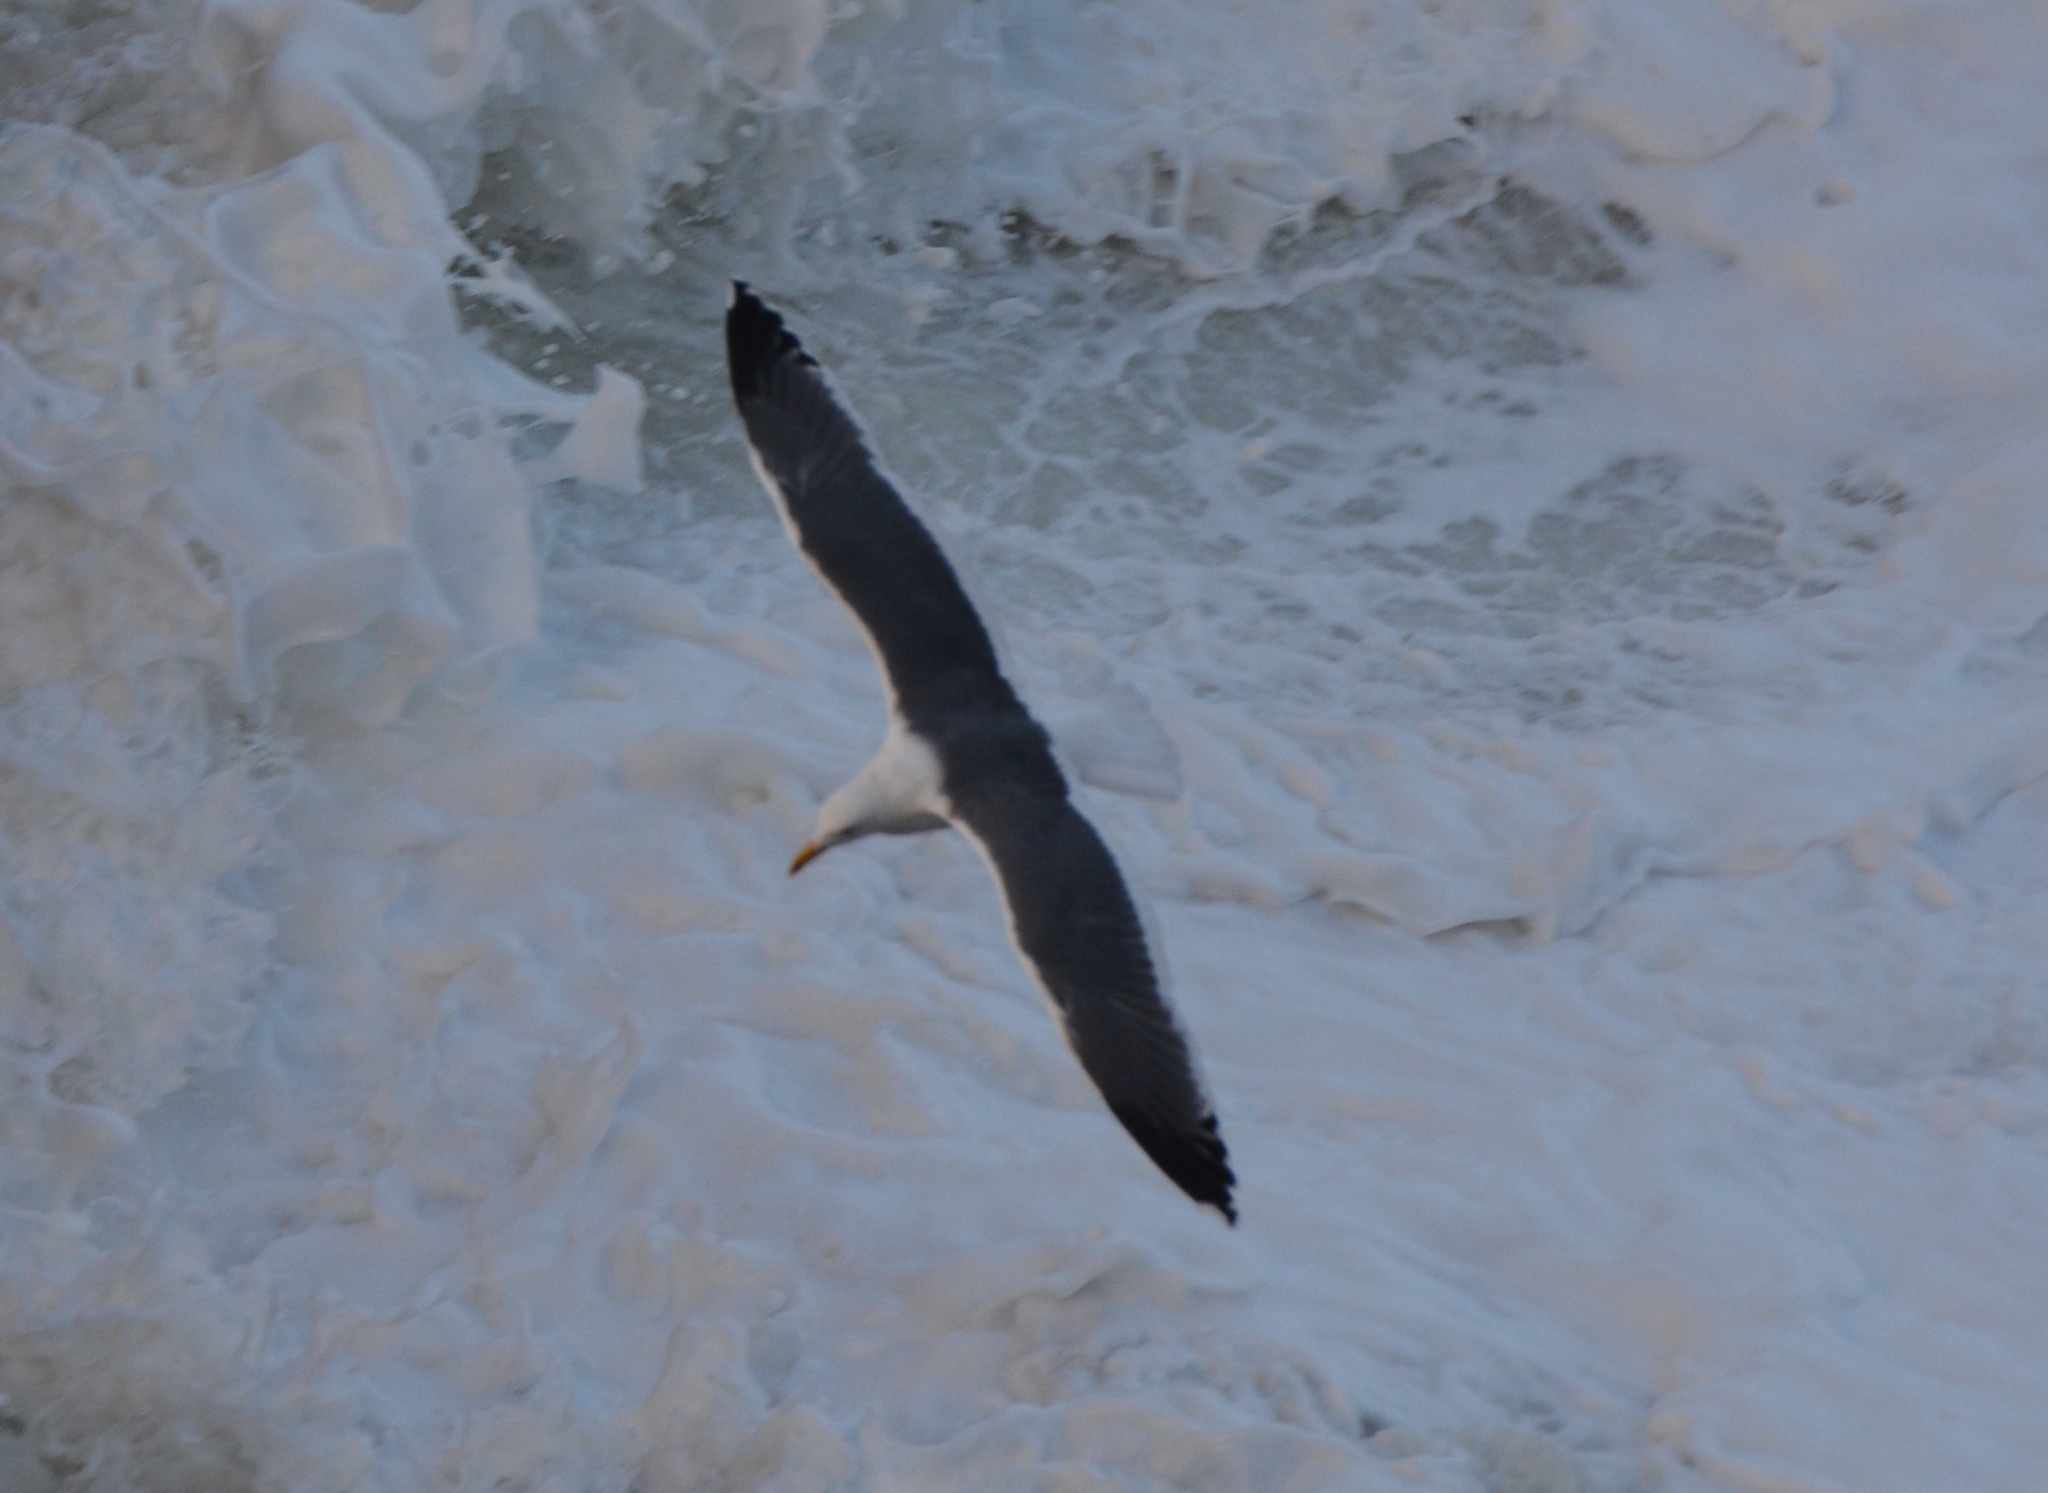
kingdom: Animalia
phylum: Chordata
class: Aves
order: Charadriiformes
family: Laridae
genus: Larus
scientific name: Larus occidentalis
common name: Western gull
